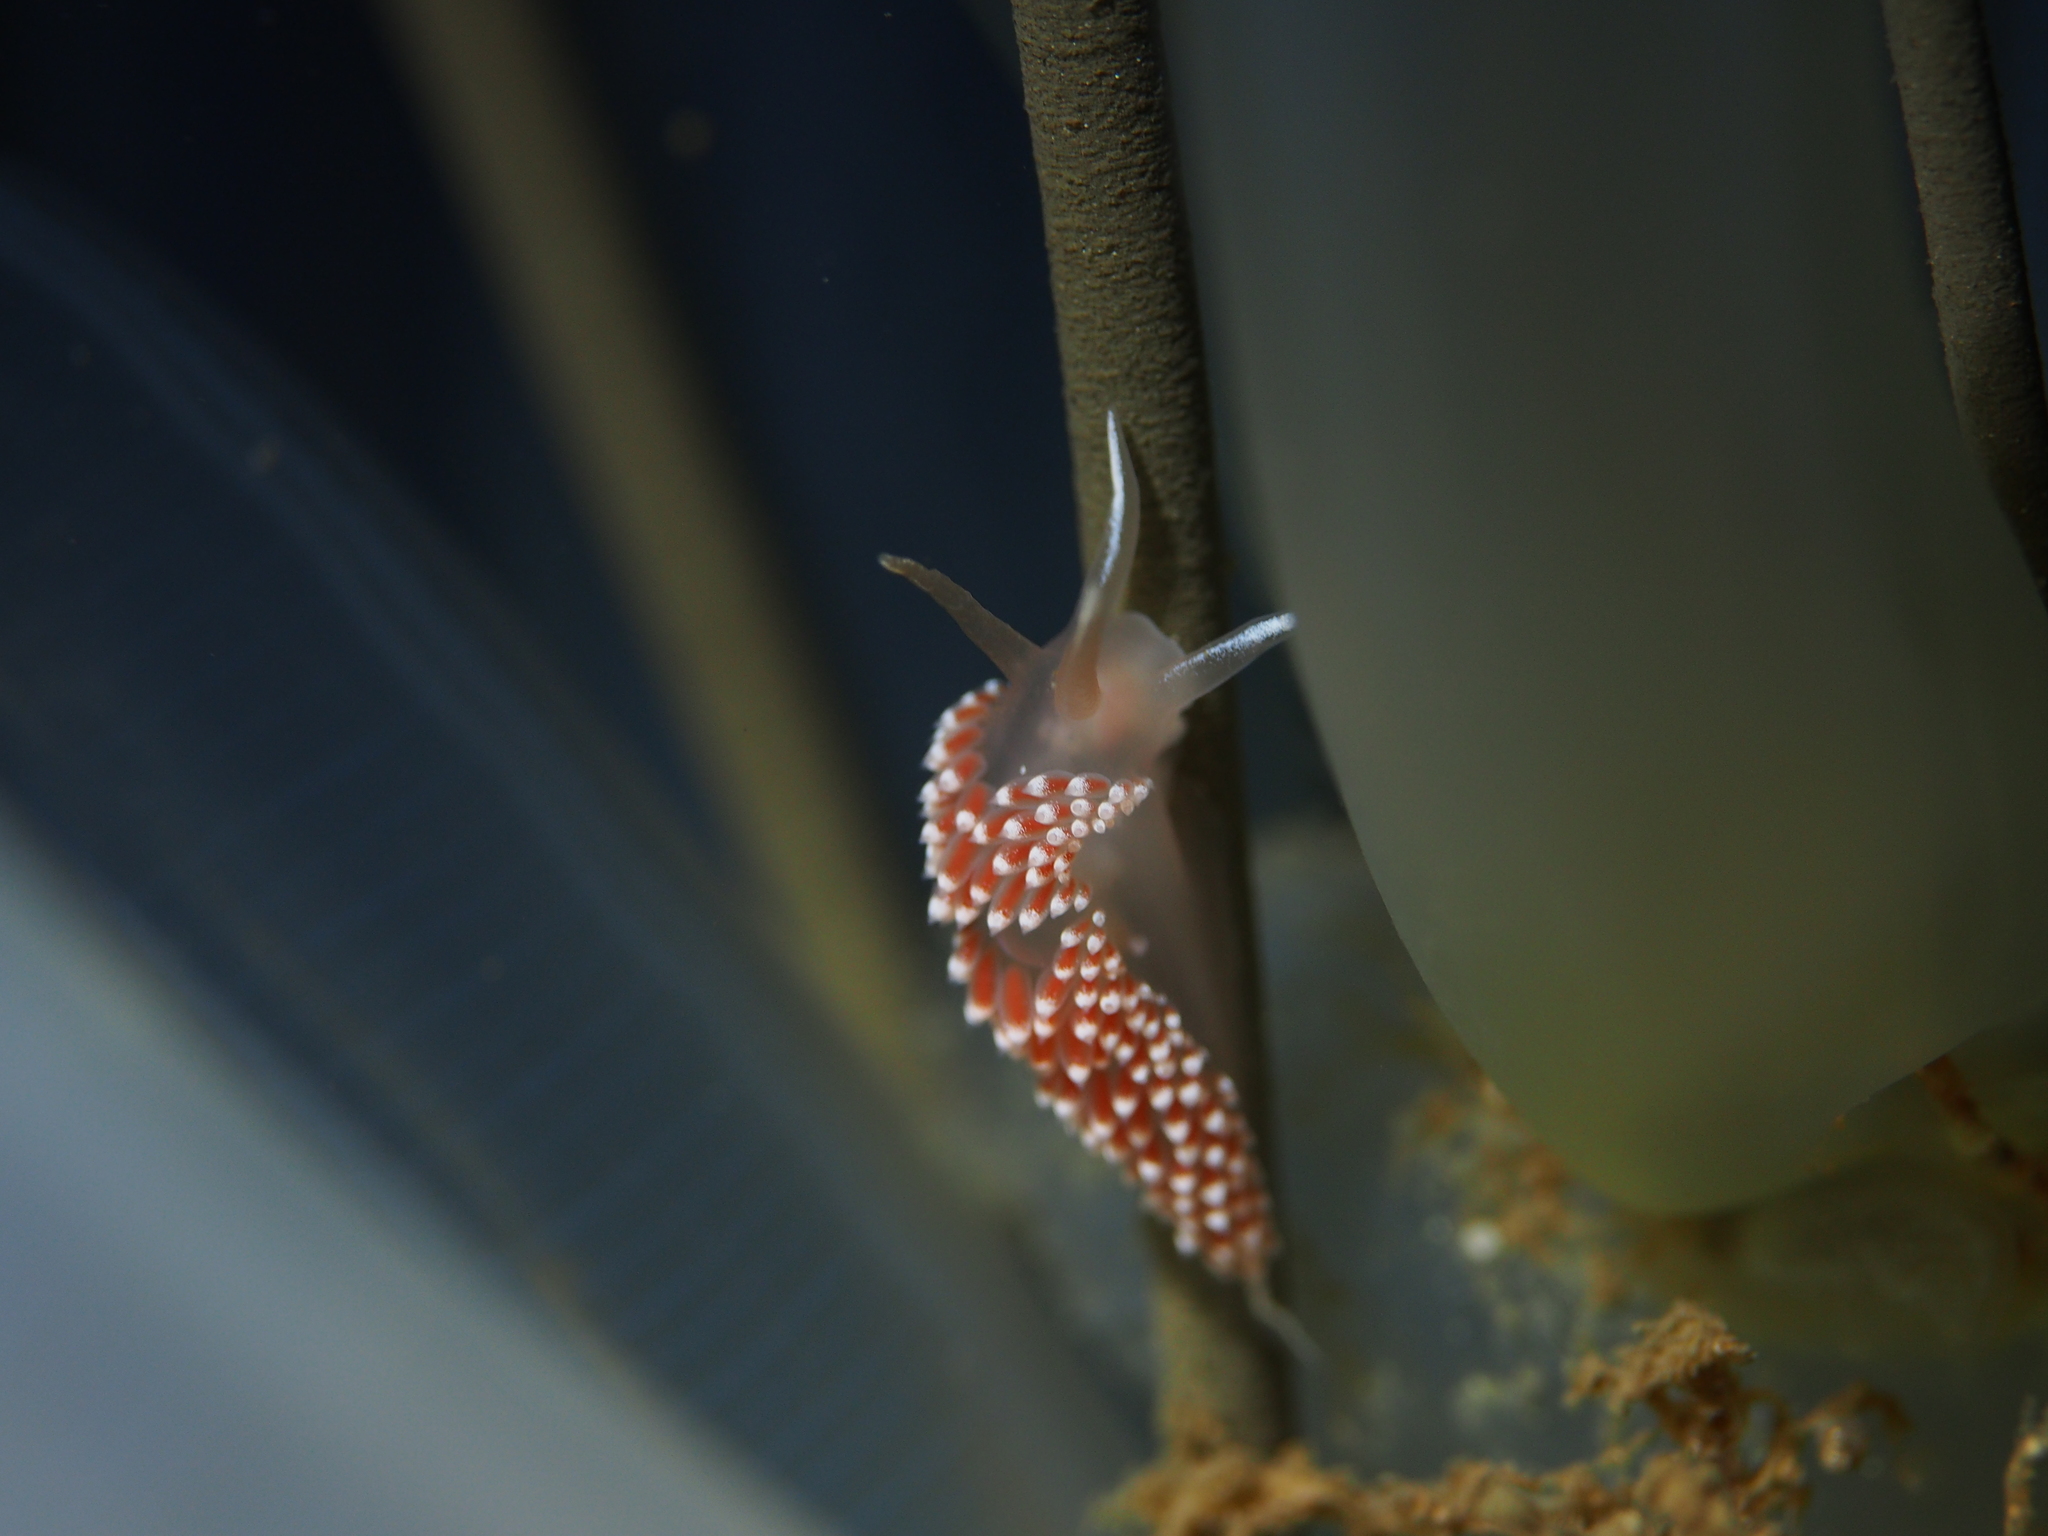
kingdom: Animalia
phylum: Mollusca
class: Gastropoda
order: Nudibranchia
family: Coryphellidae
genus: Coryphella
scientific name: Coryphella verrucosa
